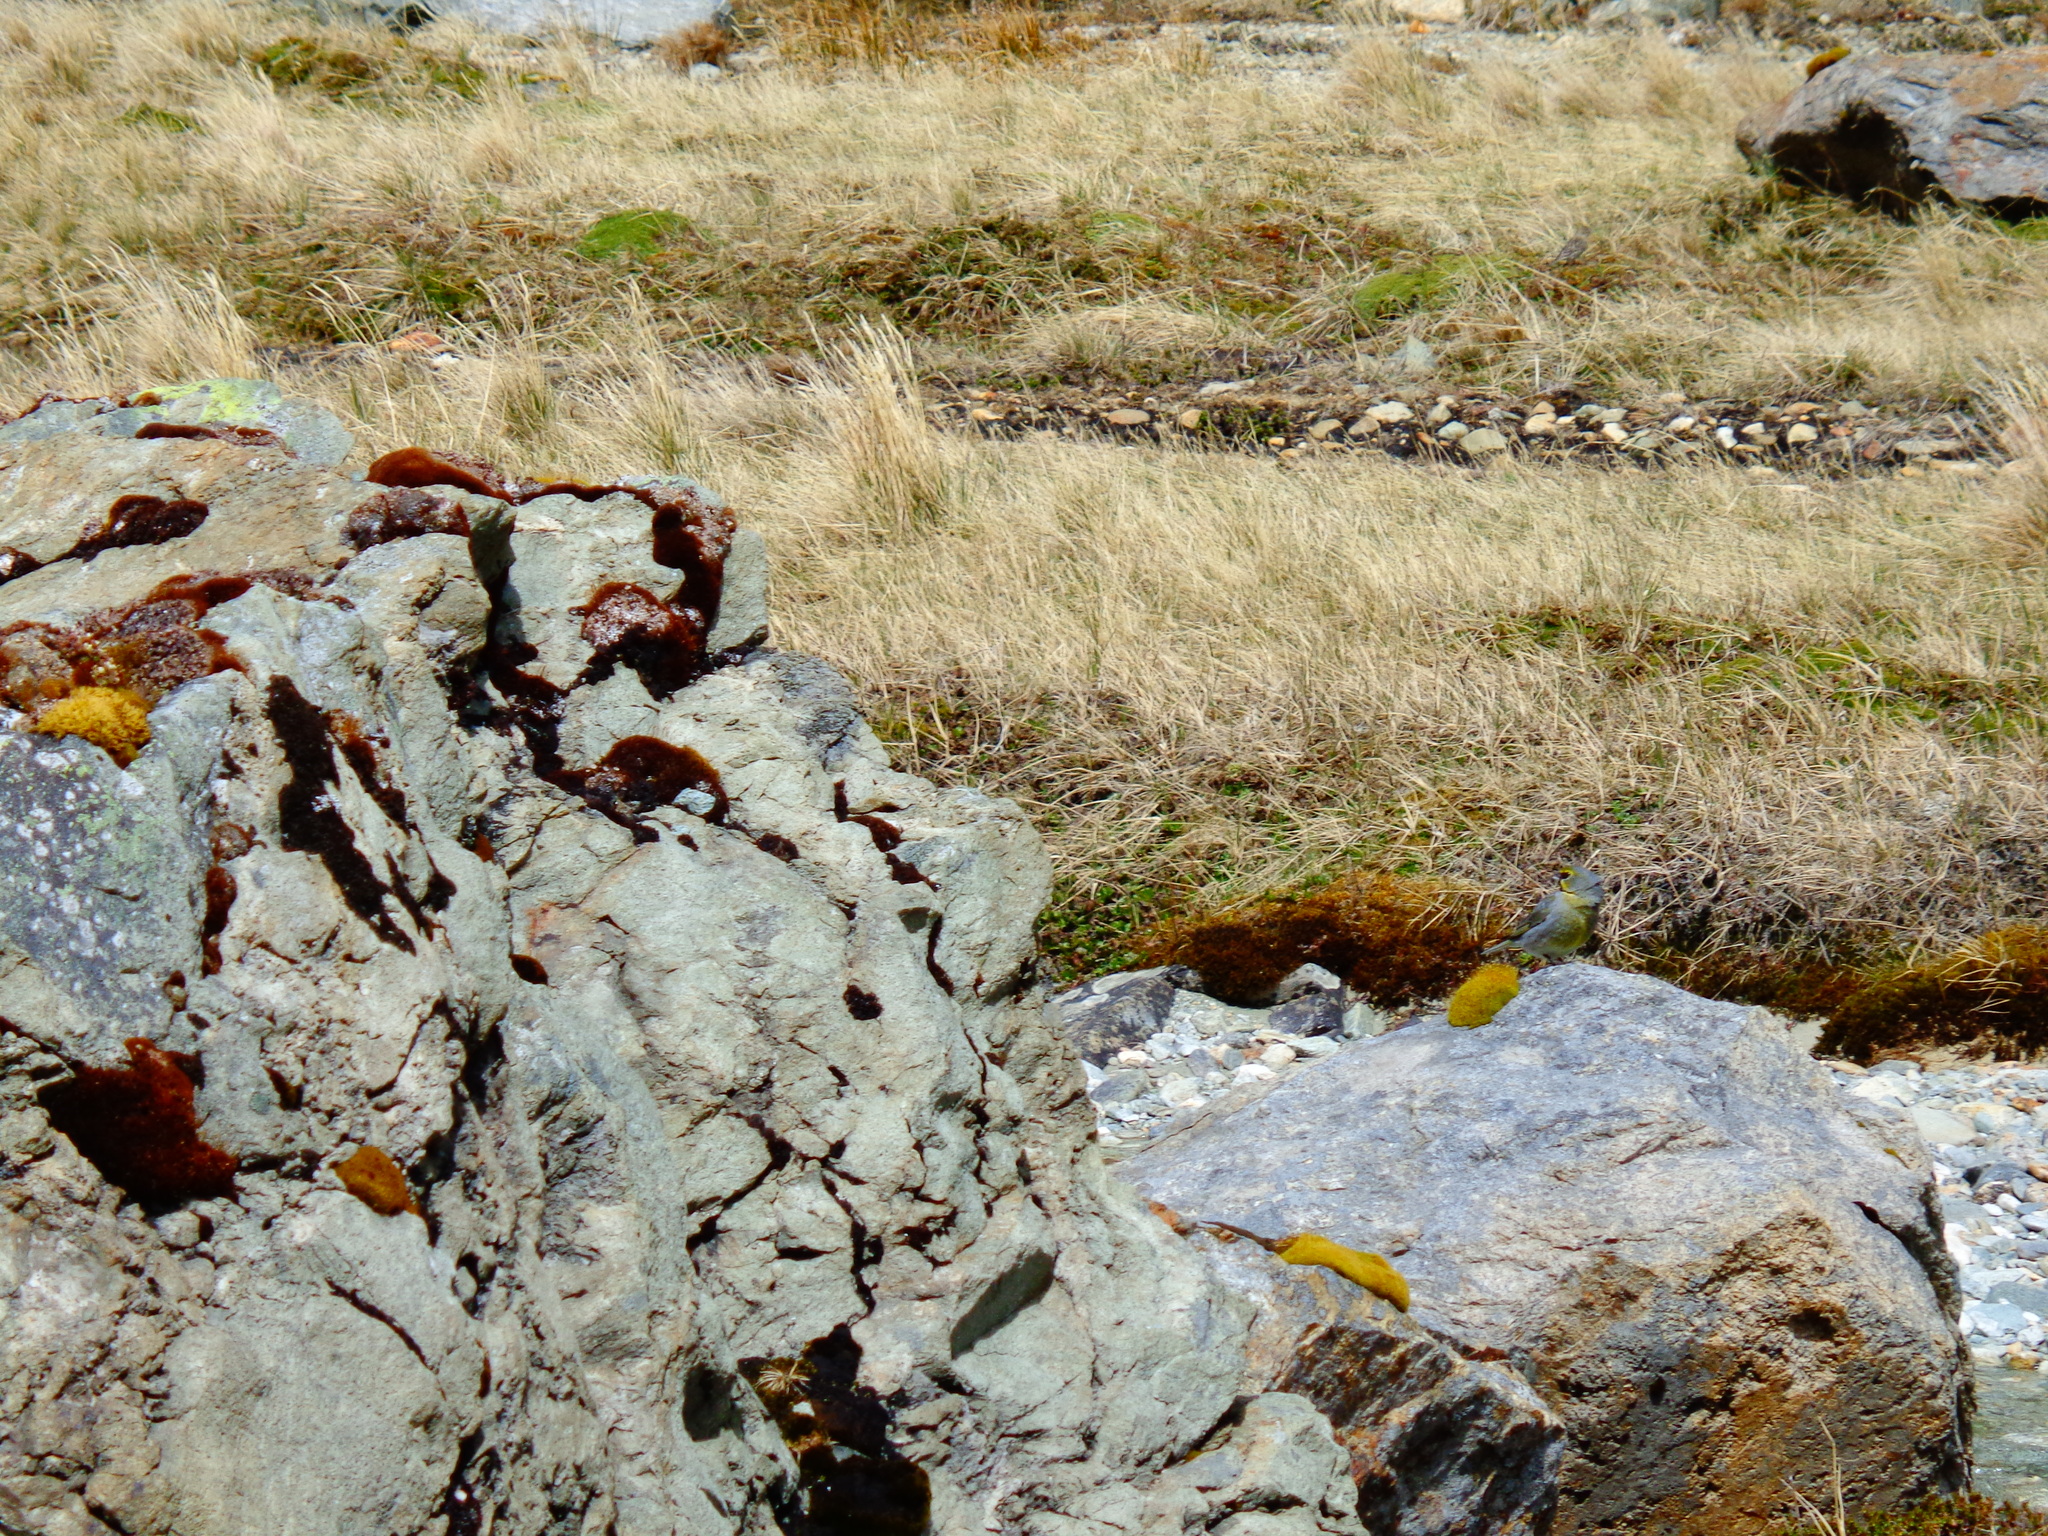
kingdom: Animalia
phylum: Chordata
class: Aves
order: Passeriformes
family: Thraupidae
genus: Melanodera
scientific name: Melanodera xanthogramma
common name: Yellow-bridled finch
